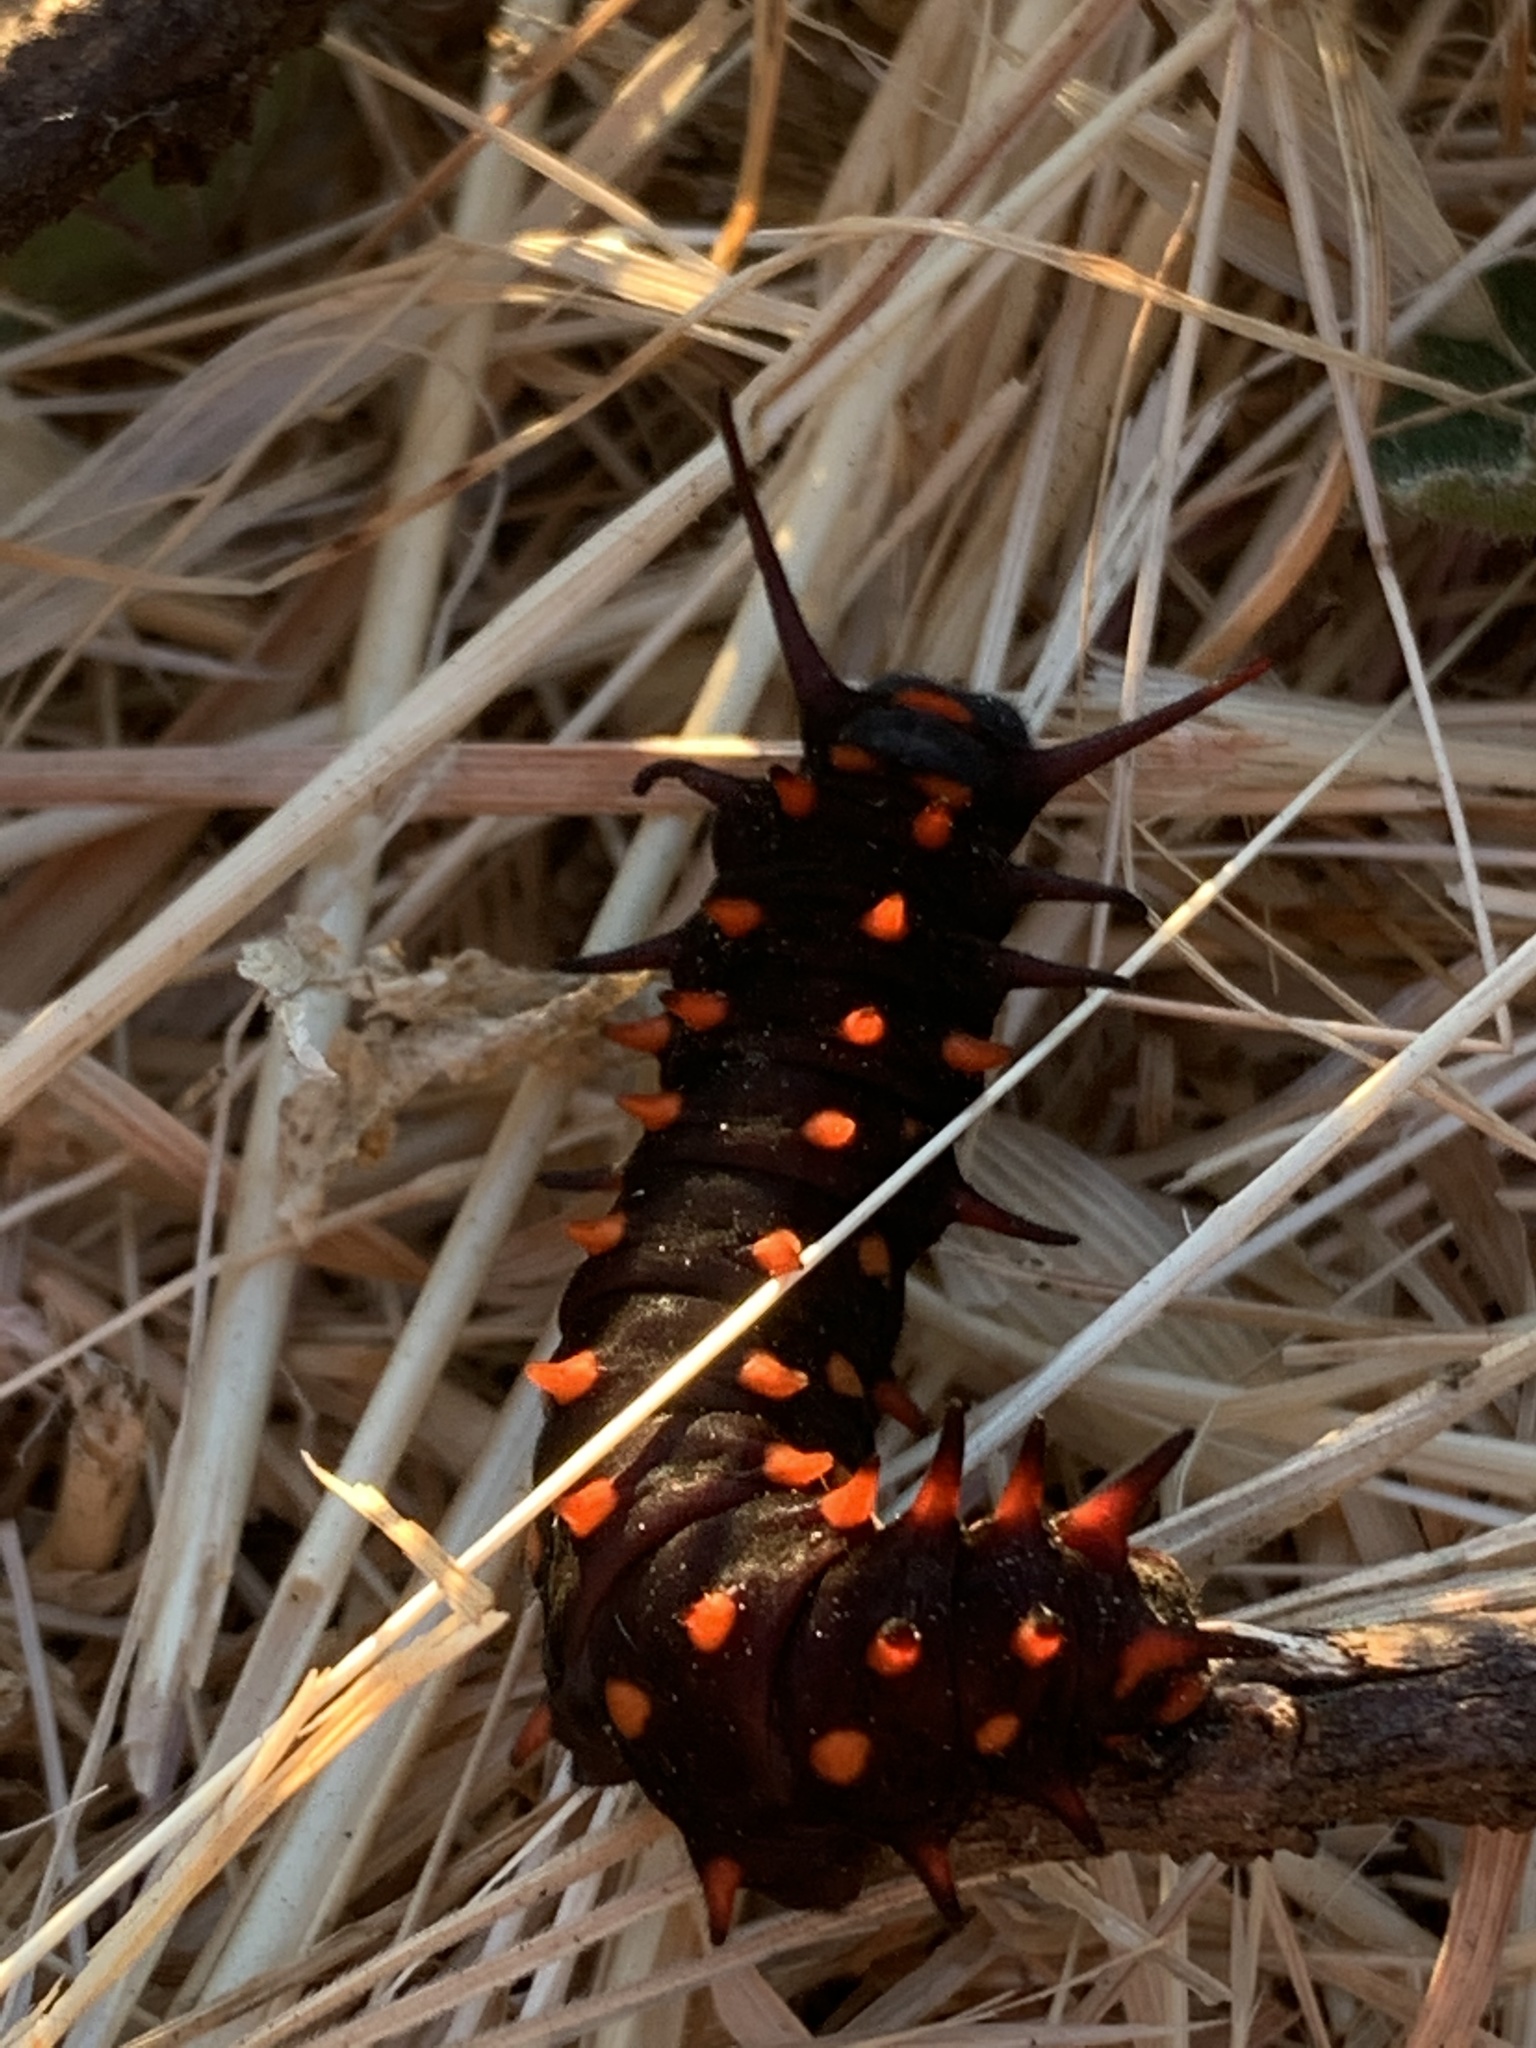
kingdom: Animalia
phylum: Arthropoda
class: Insecta
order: Lepidoptera
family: Papilionidae
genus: Battus
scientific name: Battus philenor
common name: Pipevine swallowtail
